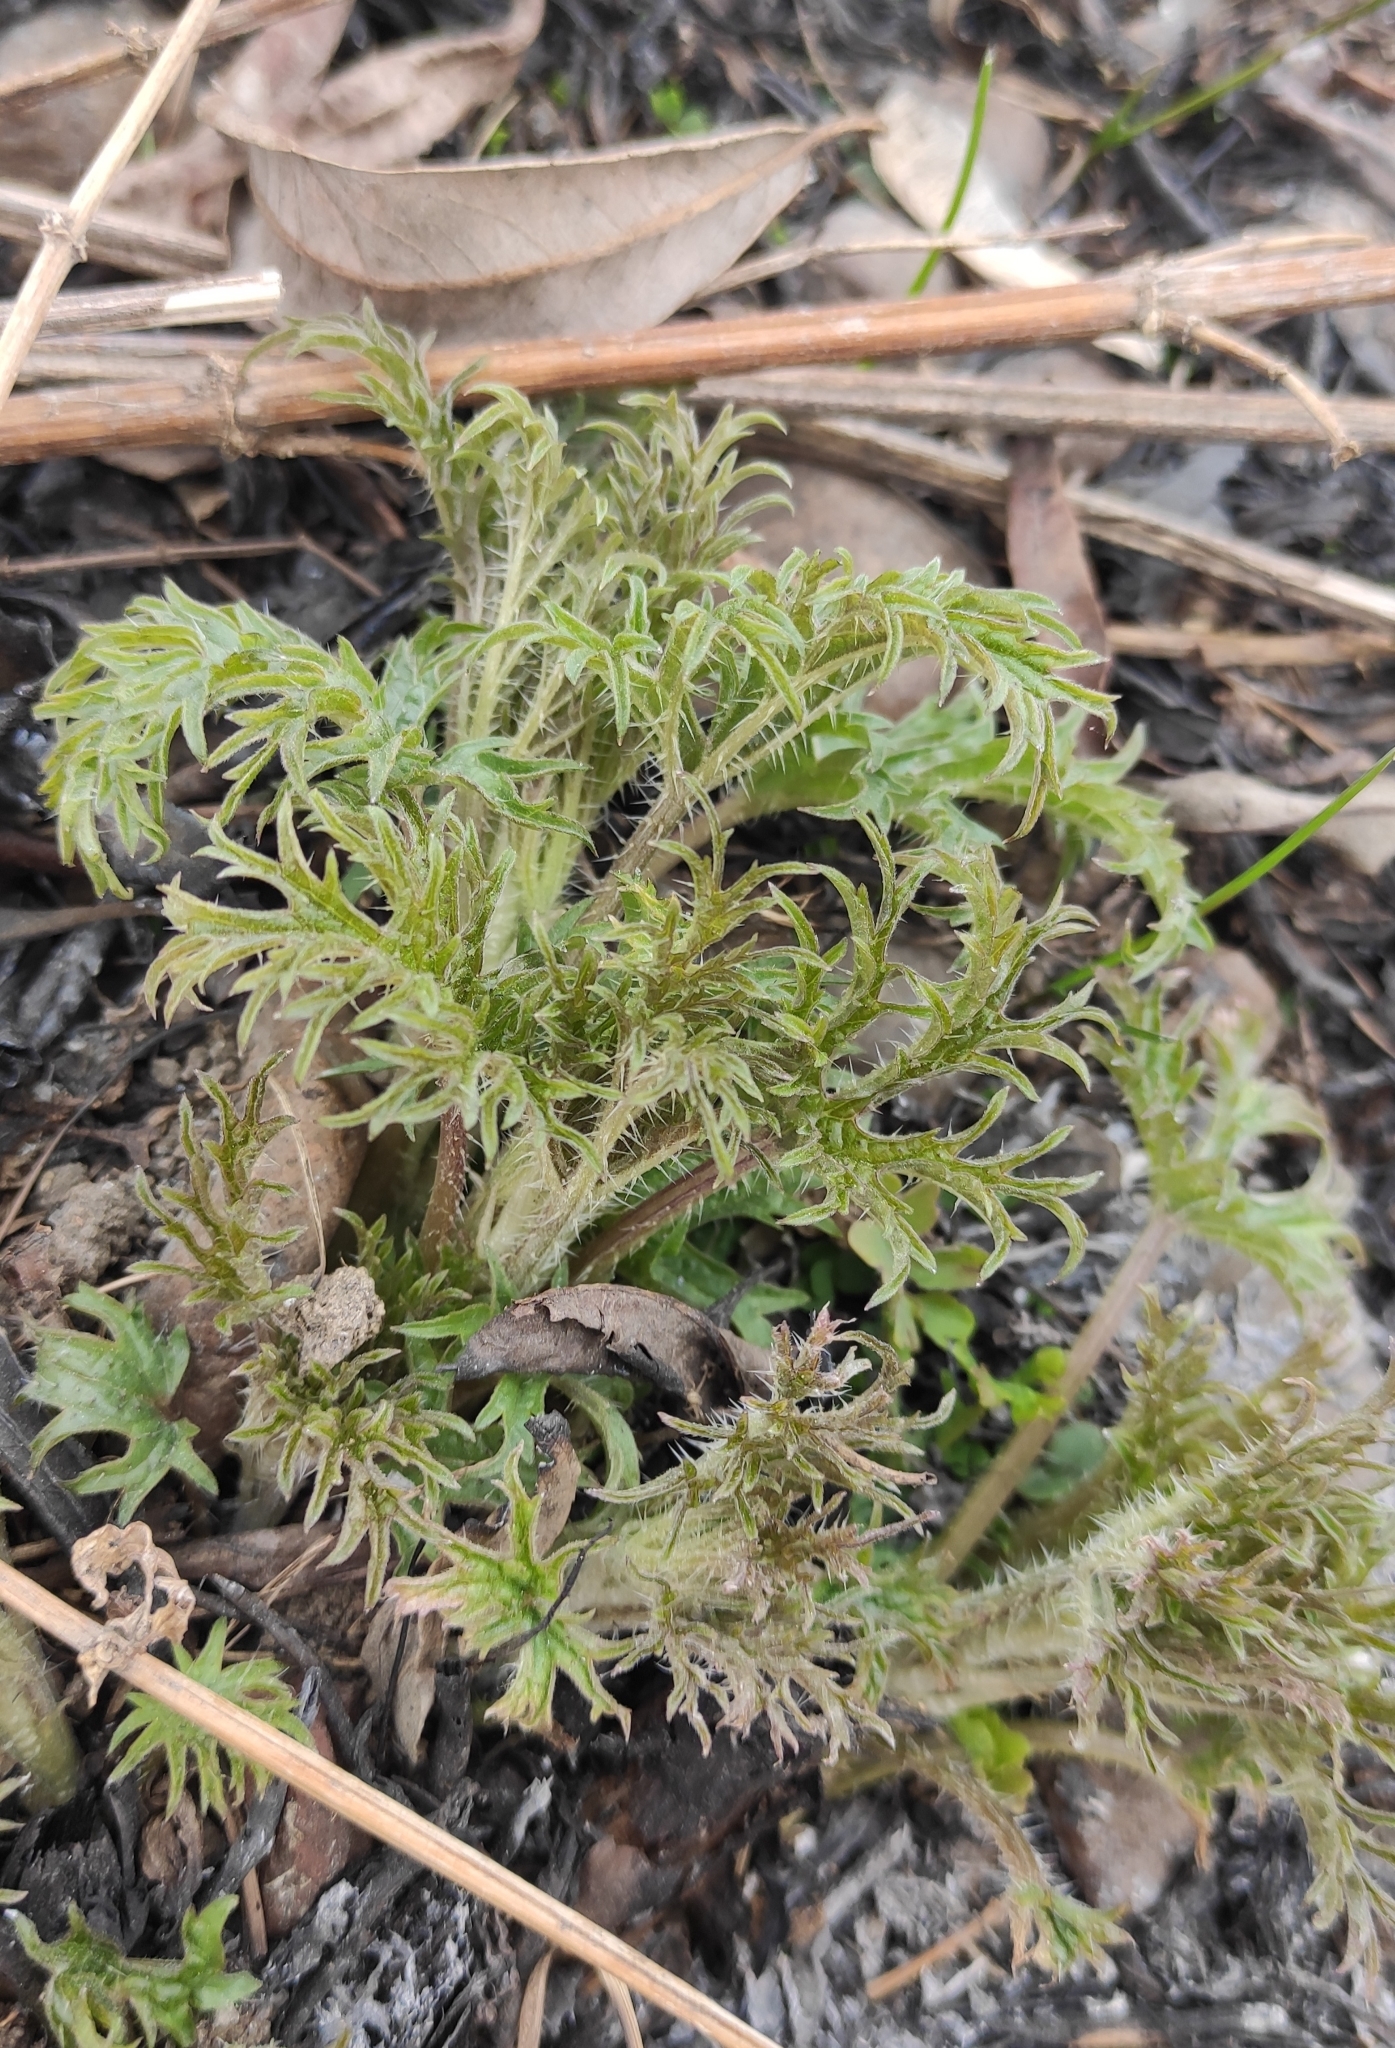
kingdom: Plantae
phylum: Tracheophyta
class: Magnoliopsida
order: Rosales
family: Urticaceae
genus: Urtica
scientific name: Urtica cannabina
